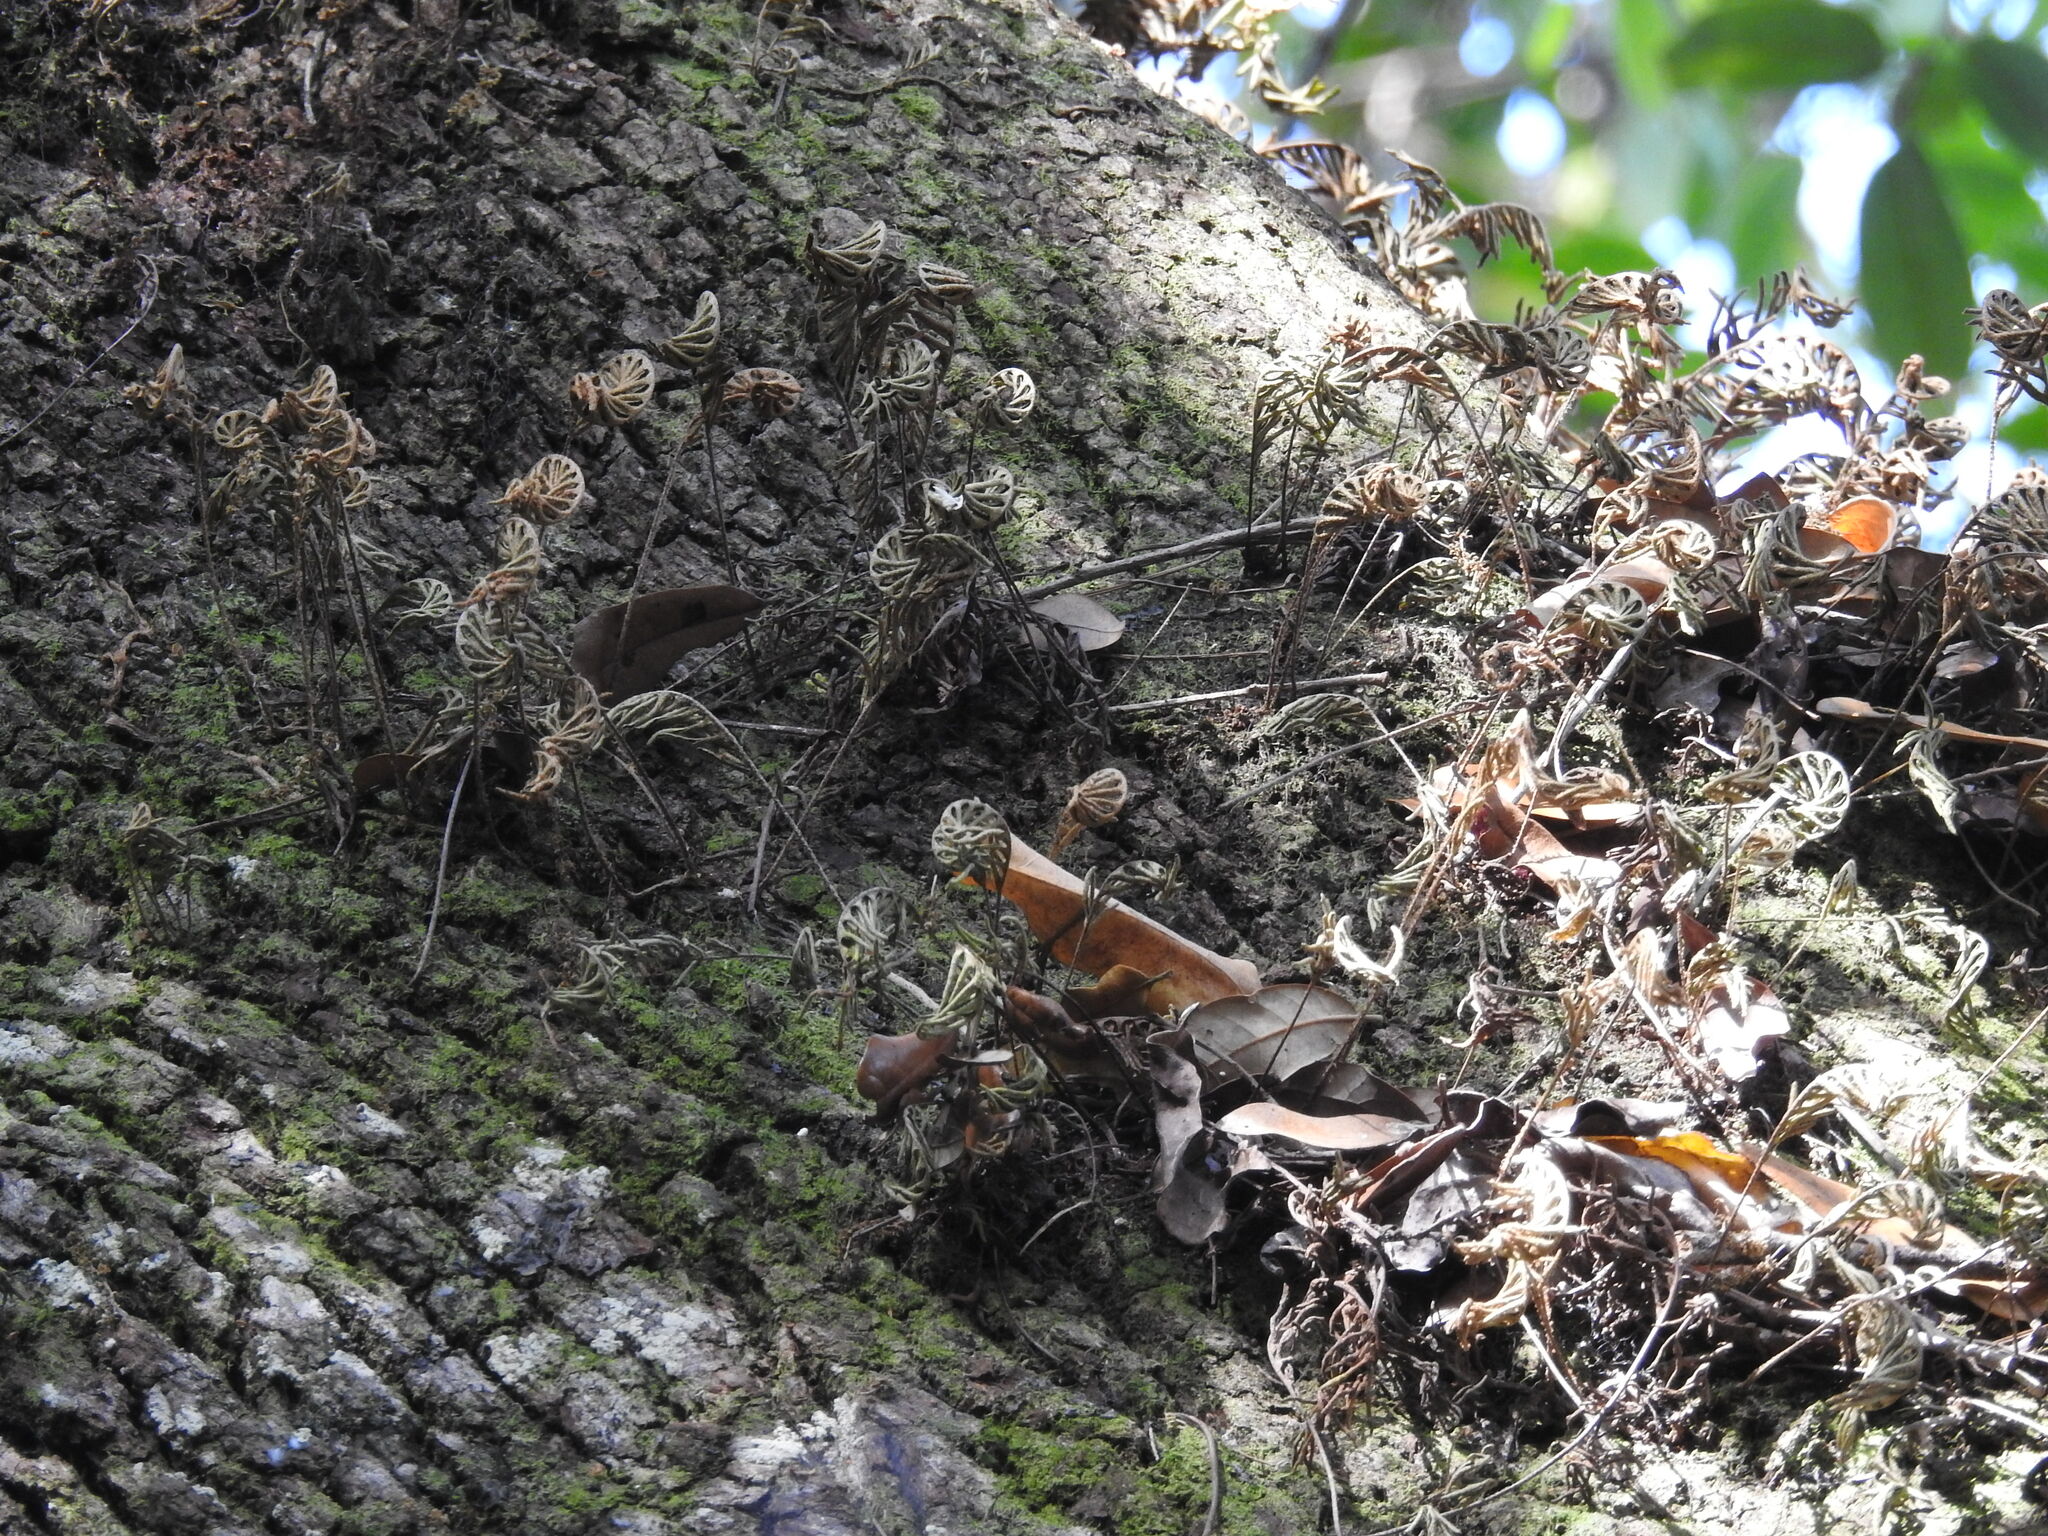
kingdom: Plantae
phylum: Tracheophyta
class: Polypodiopsida
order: Polypodiales
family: Polypodiaceae
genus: Pleopeltis
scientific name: Pleopeltis michauxiana
